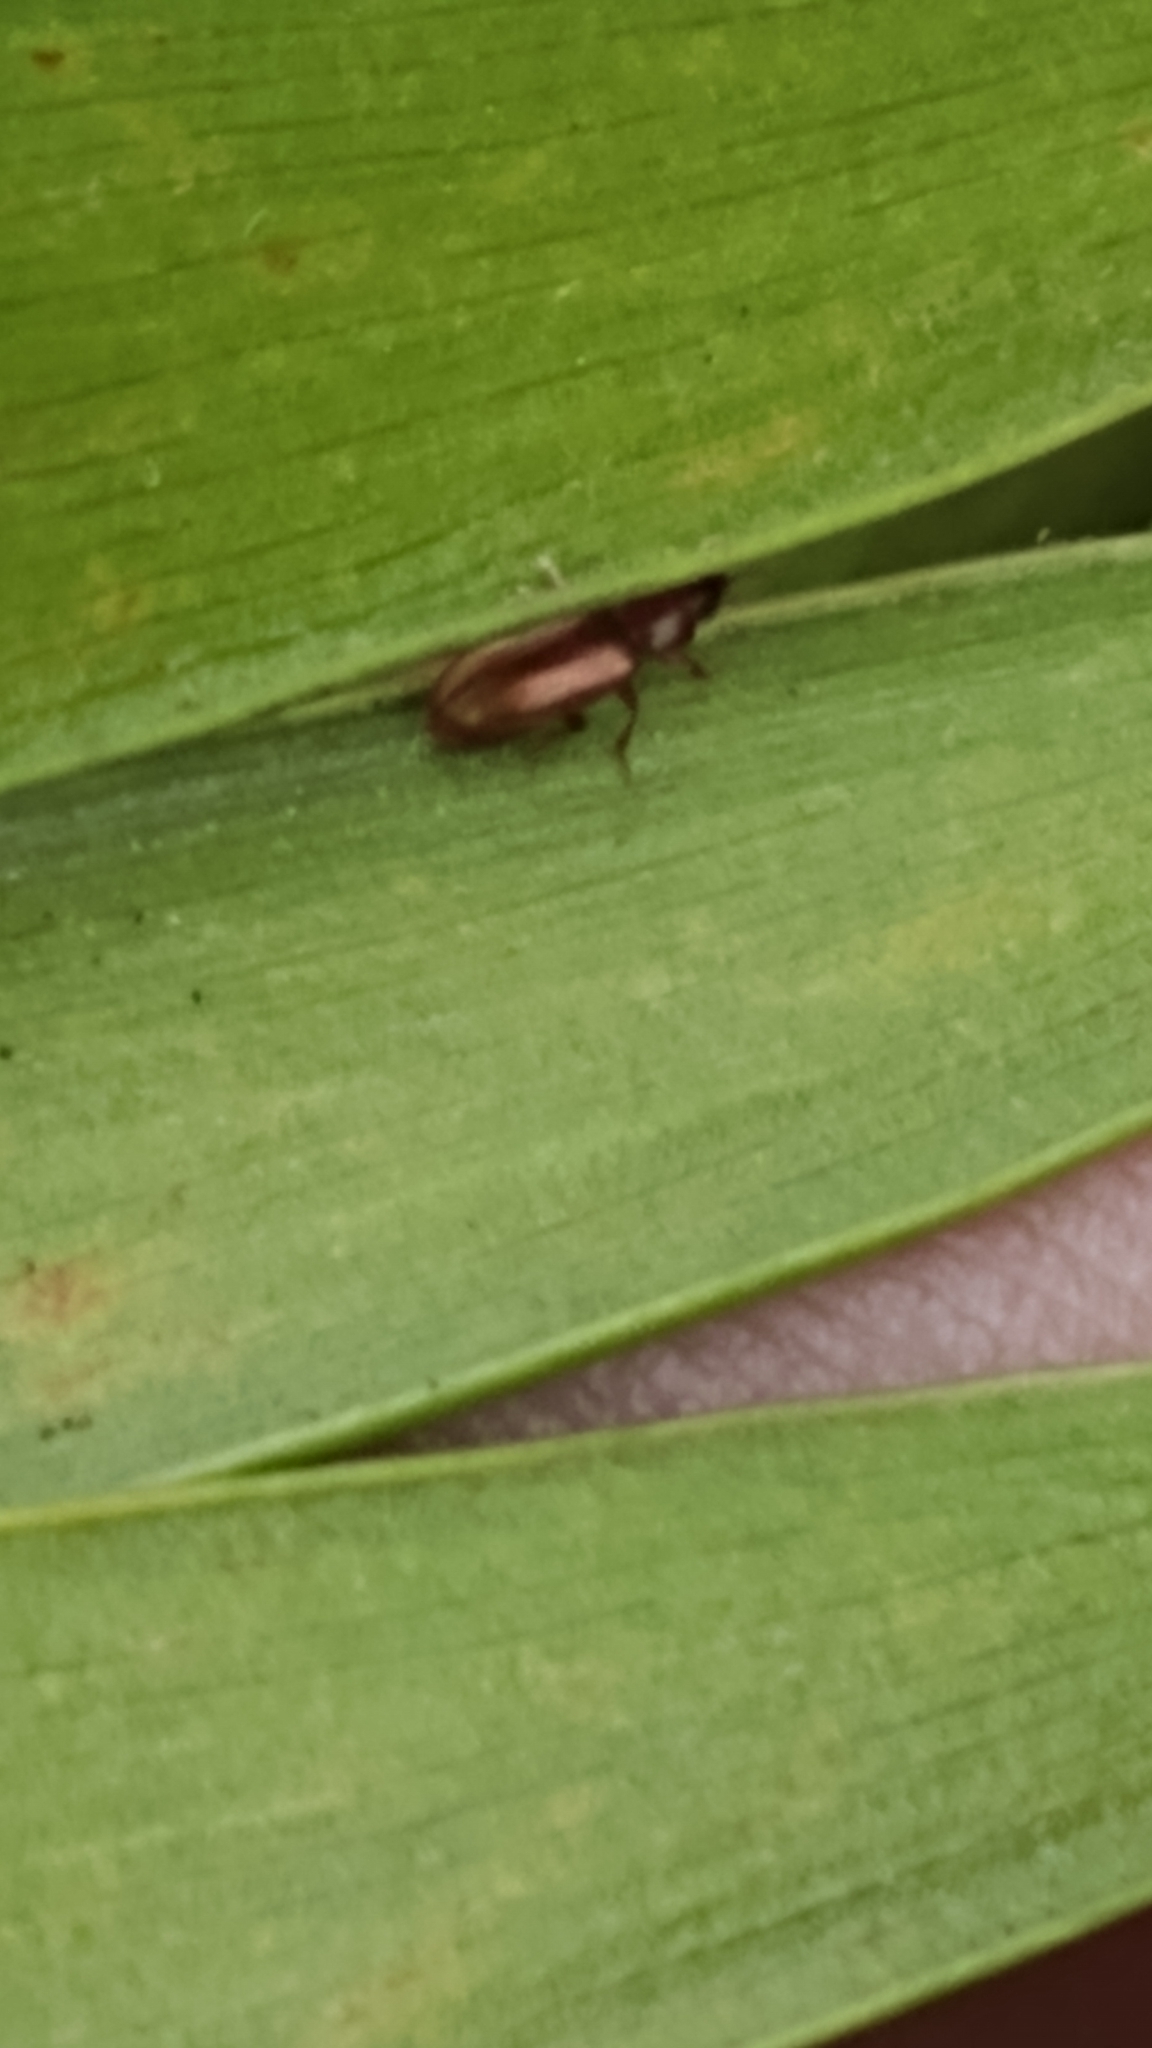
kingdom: Animalia
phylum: Arthropoda
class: Insecta
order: Coleoptera
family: Erotylidae
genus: Pharaxonotha
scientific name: Pharaxonotha floridana
